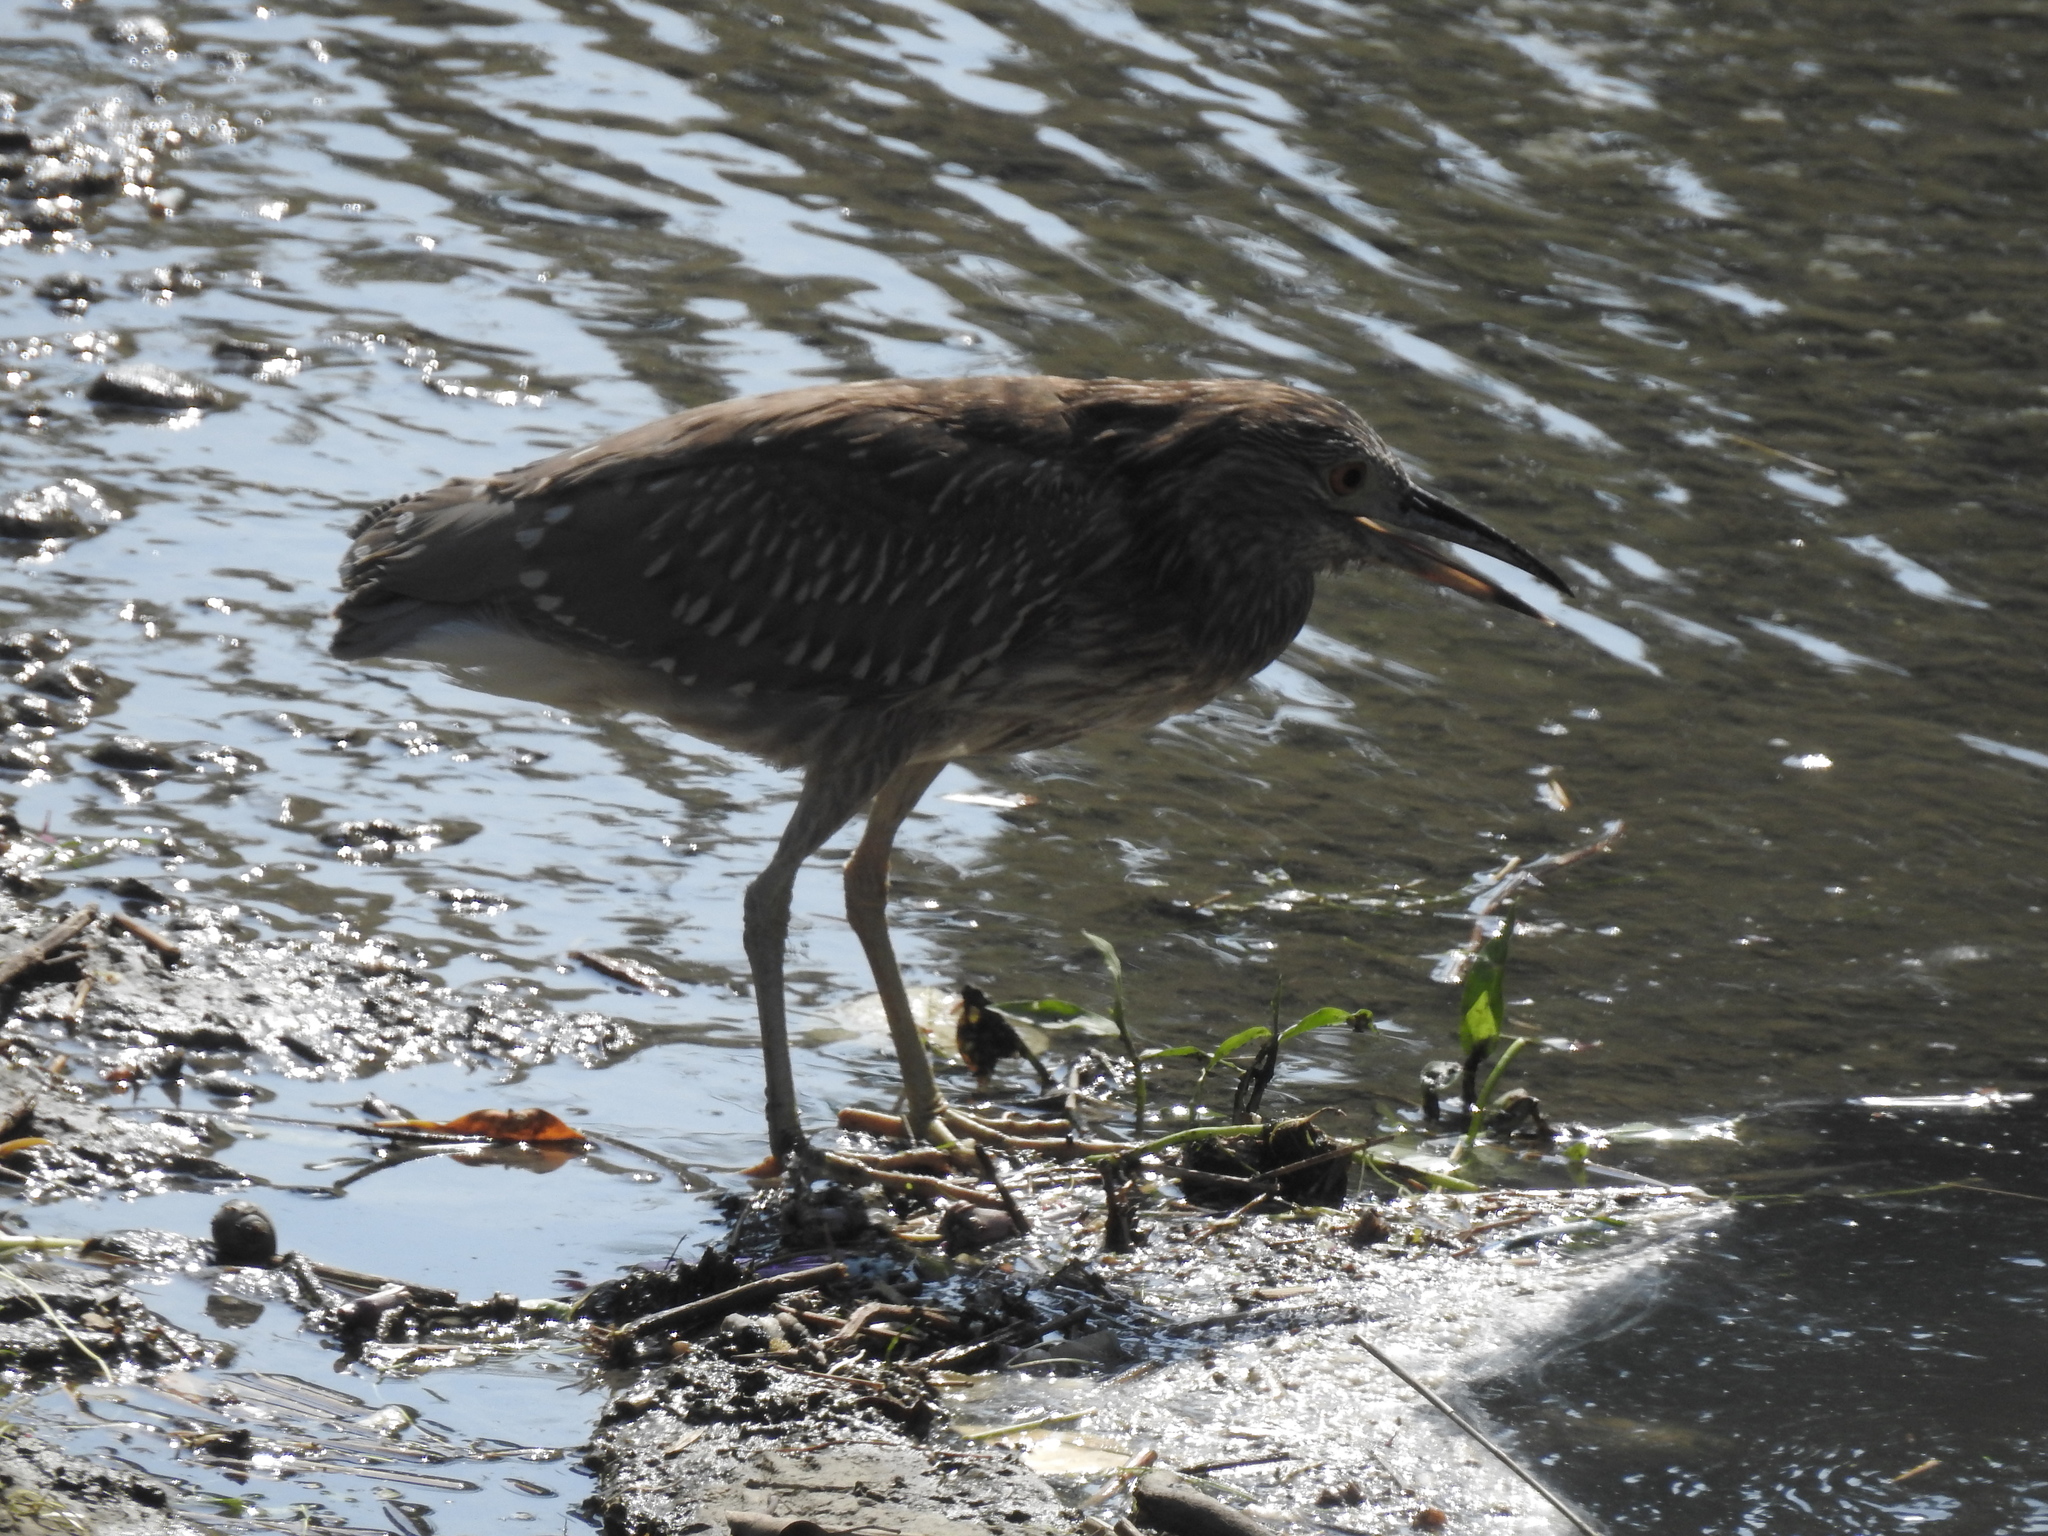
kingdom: Animalia
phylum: Chordata
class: Aves
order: Pelecaniformes
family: Ardeidae
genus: Nycticorax
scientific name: Nycticorax nycticorax
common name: Black-crowned night heron
